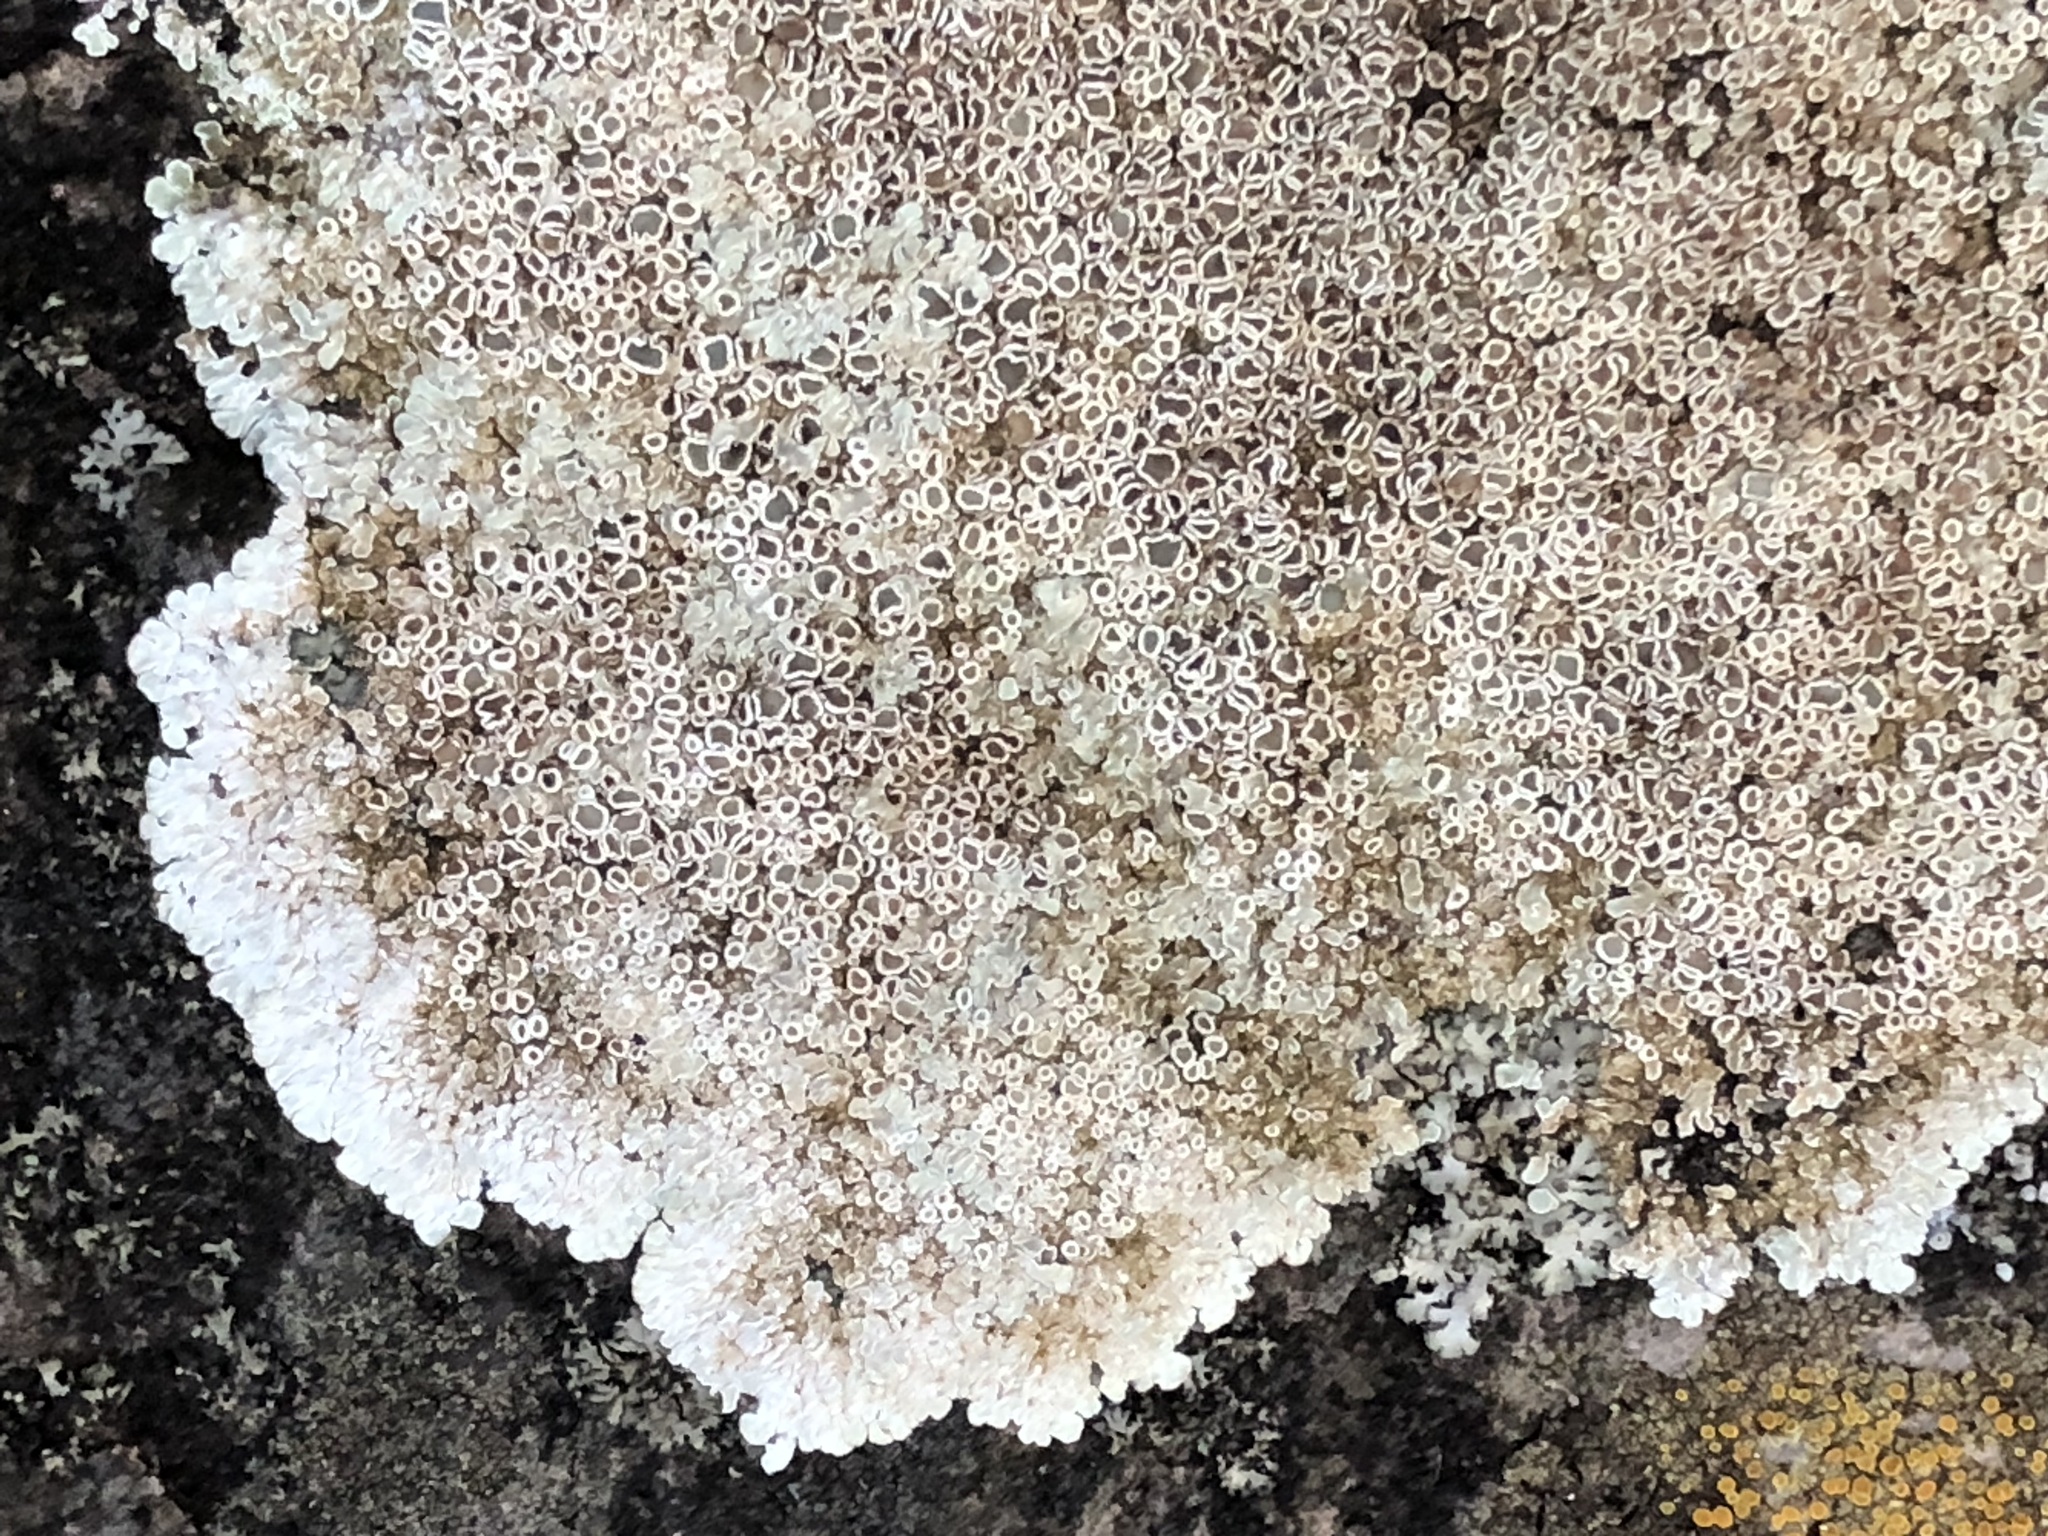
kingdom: Fungi
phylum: Ascomycota
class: Lecanoromycetes
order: Lecanorales
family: Lecanoraceae
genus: Protoparmeliopsis
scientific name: Protoparmeliopsis muralis
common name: Stonewall rim lichen
